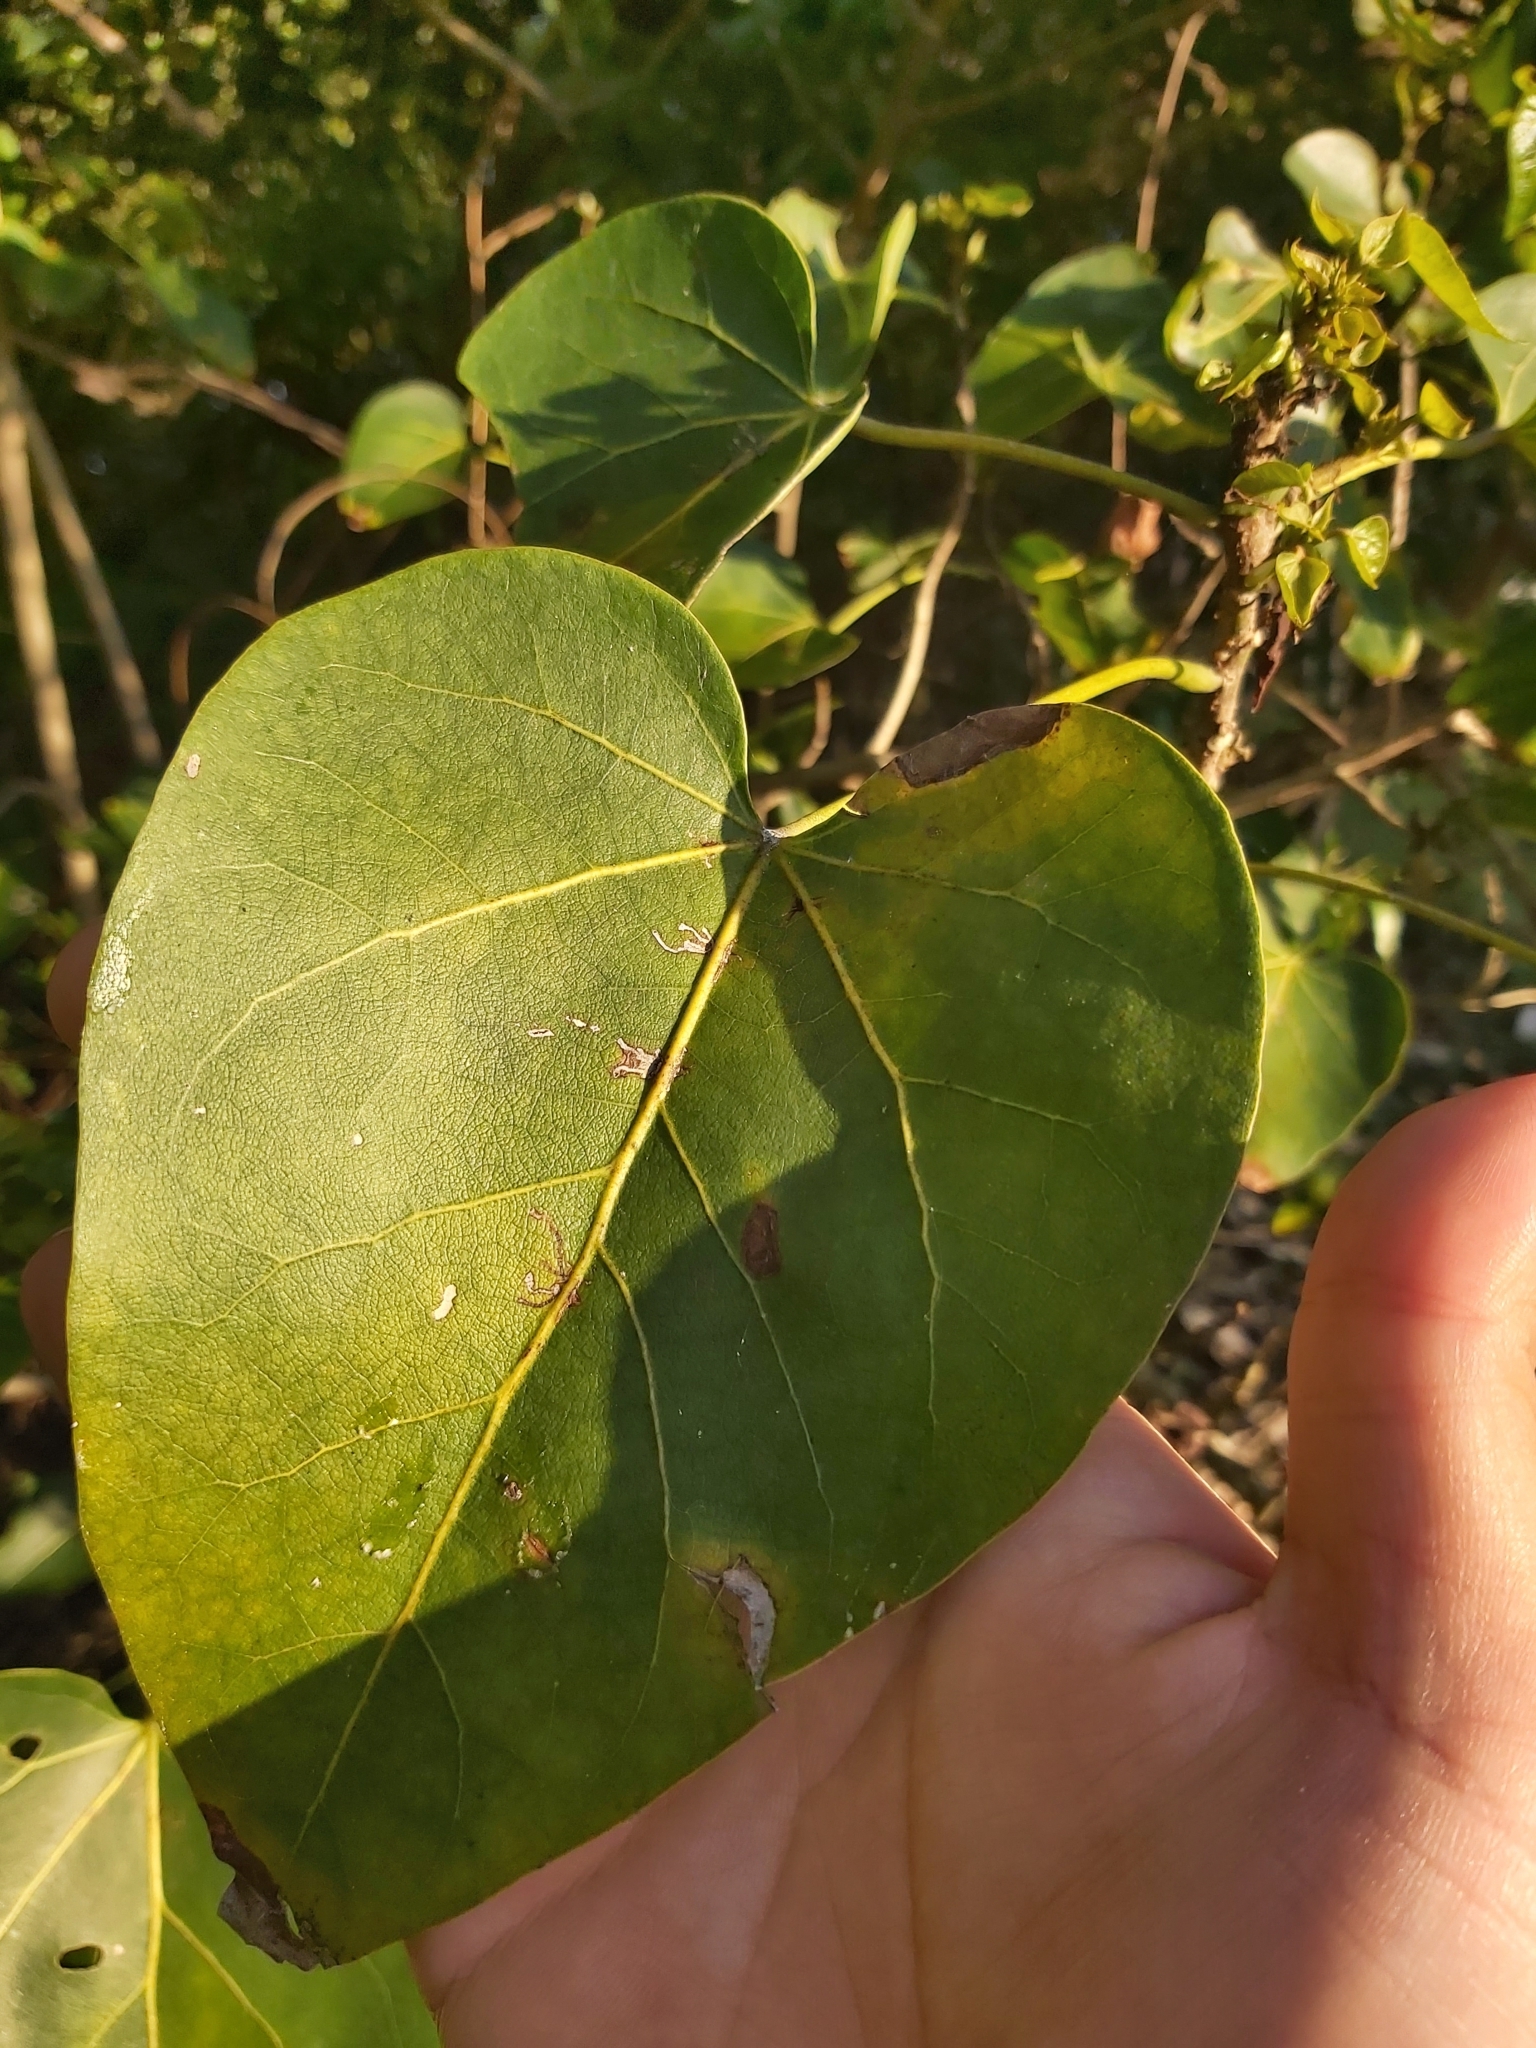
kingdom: Plantae
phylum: Tracheophyta
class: Magnoliopsida
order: Malvales
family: Malvaceae
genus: Thespesia
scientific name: Thespesia populnea
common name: Seaside mahoe
